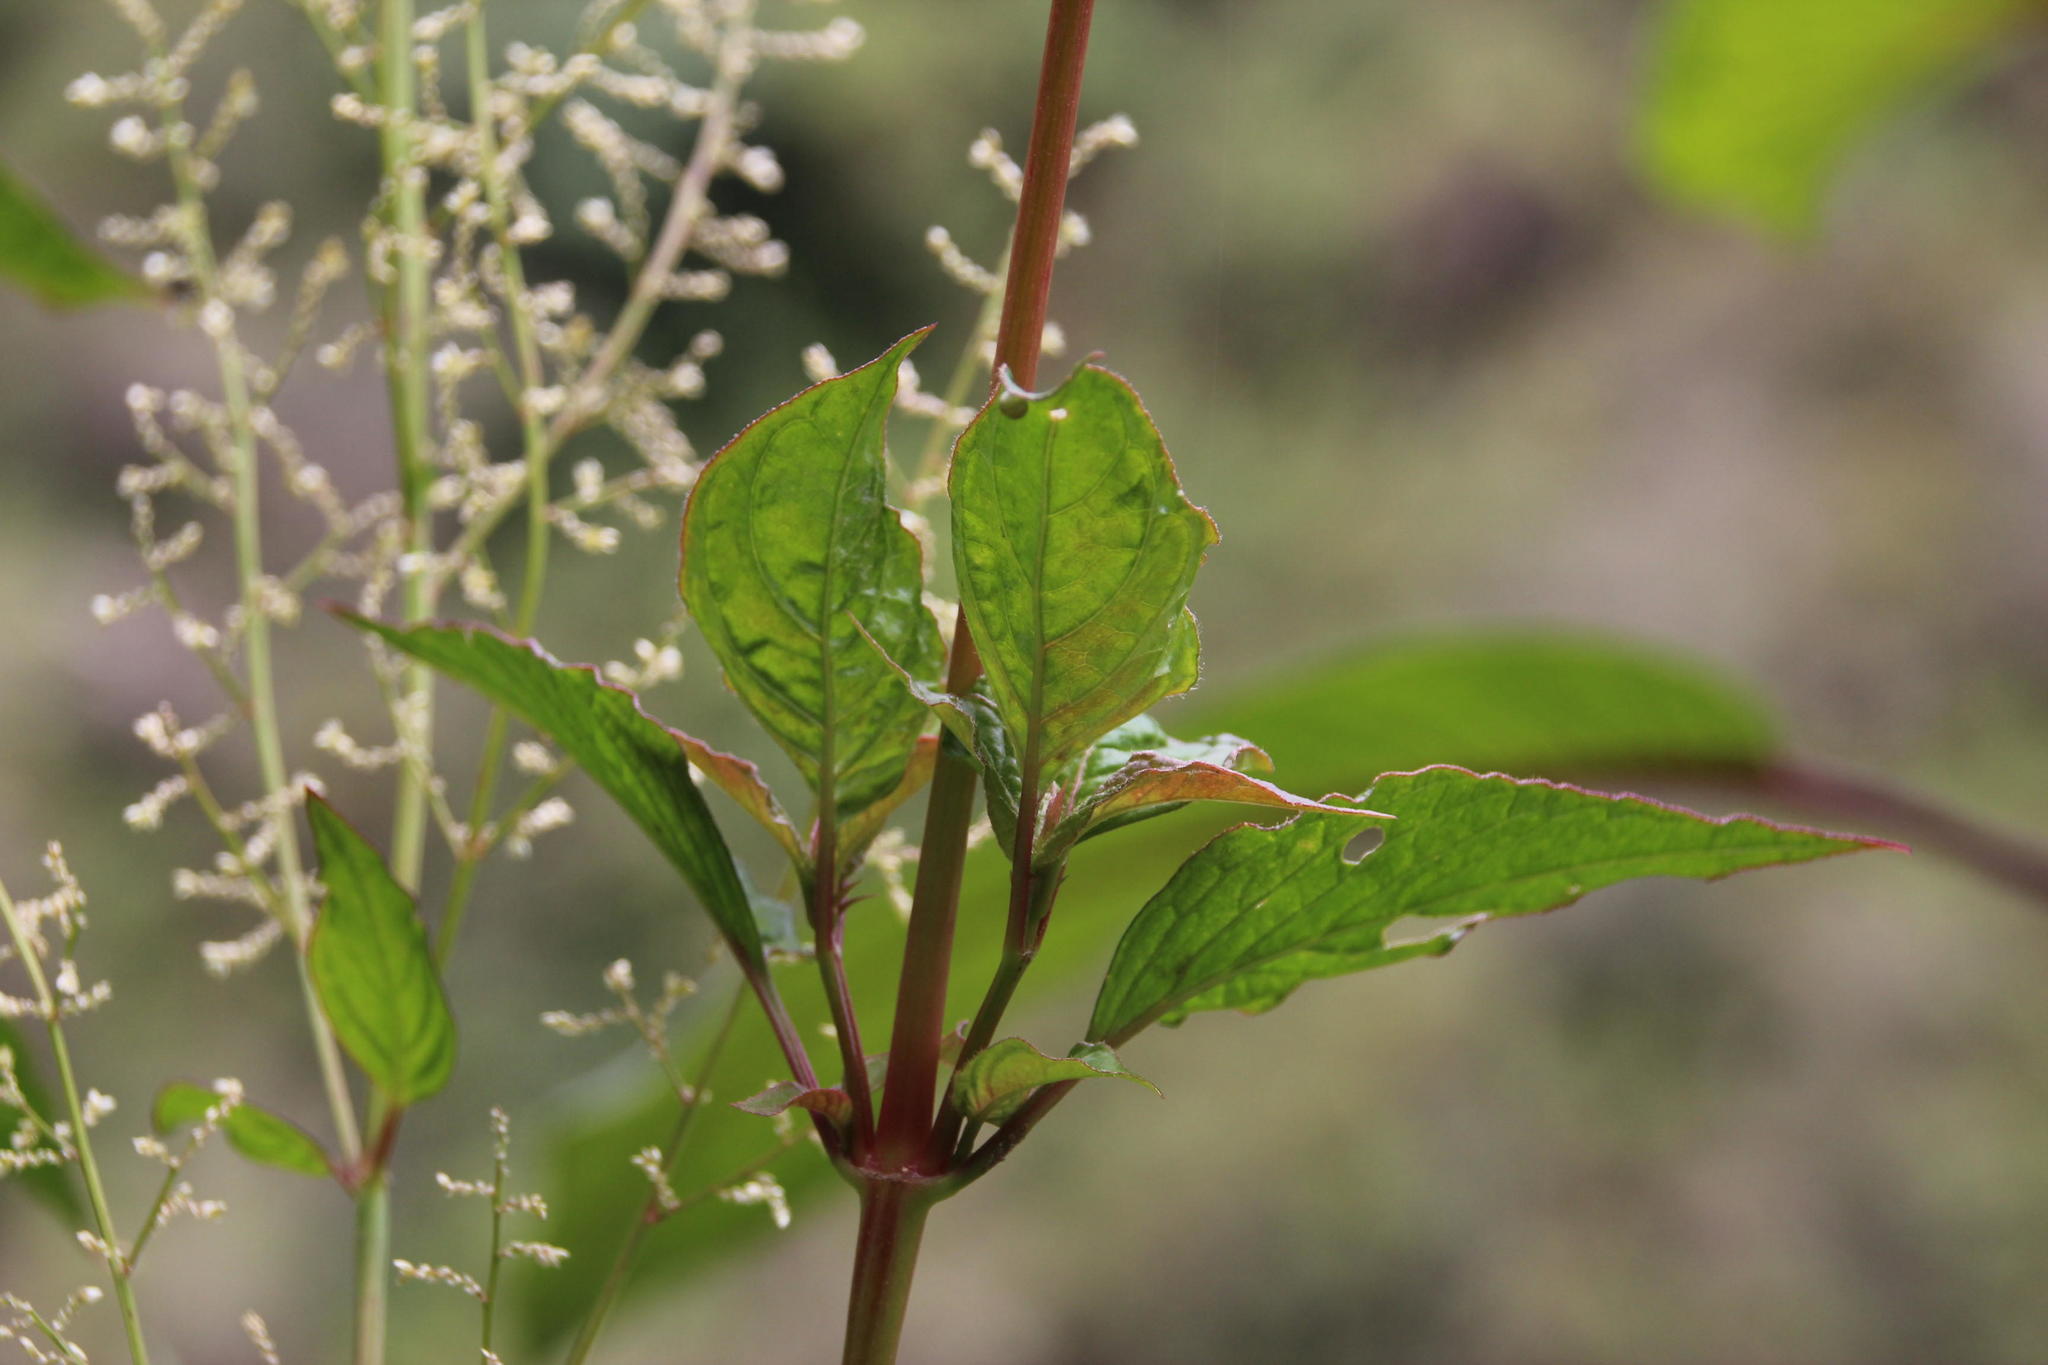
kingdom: Plantae
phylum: Tracheophyta
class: Magnoliopsida
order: Caryophyllales
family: Amaranthaceae
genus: Iresine
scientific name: Iresine diffusa
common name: Juba's-bush
